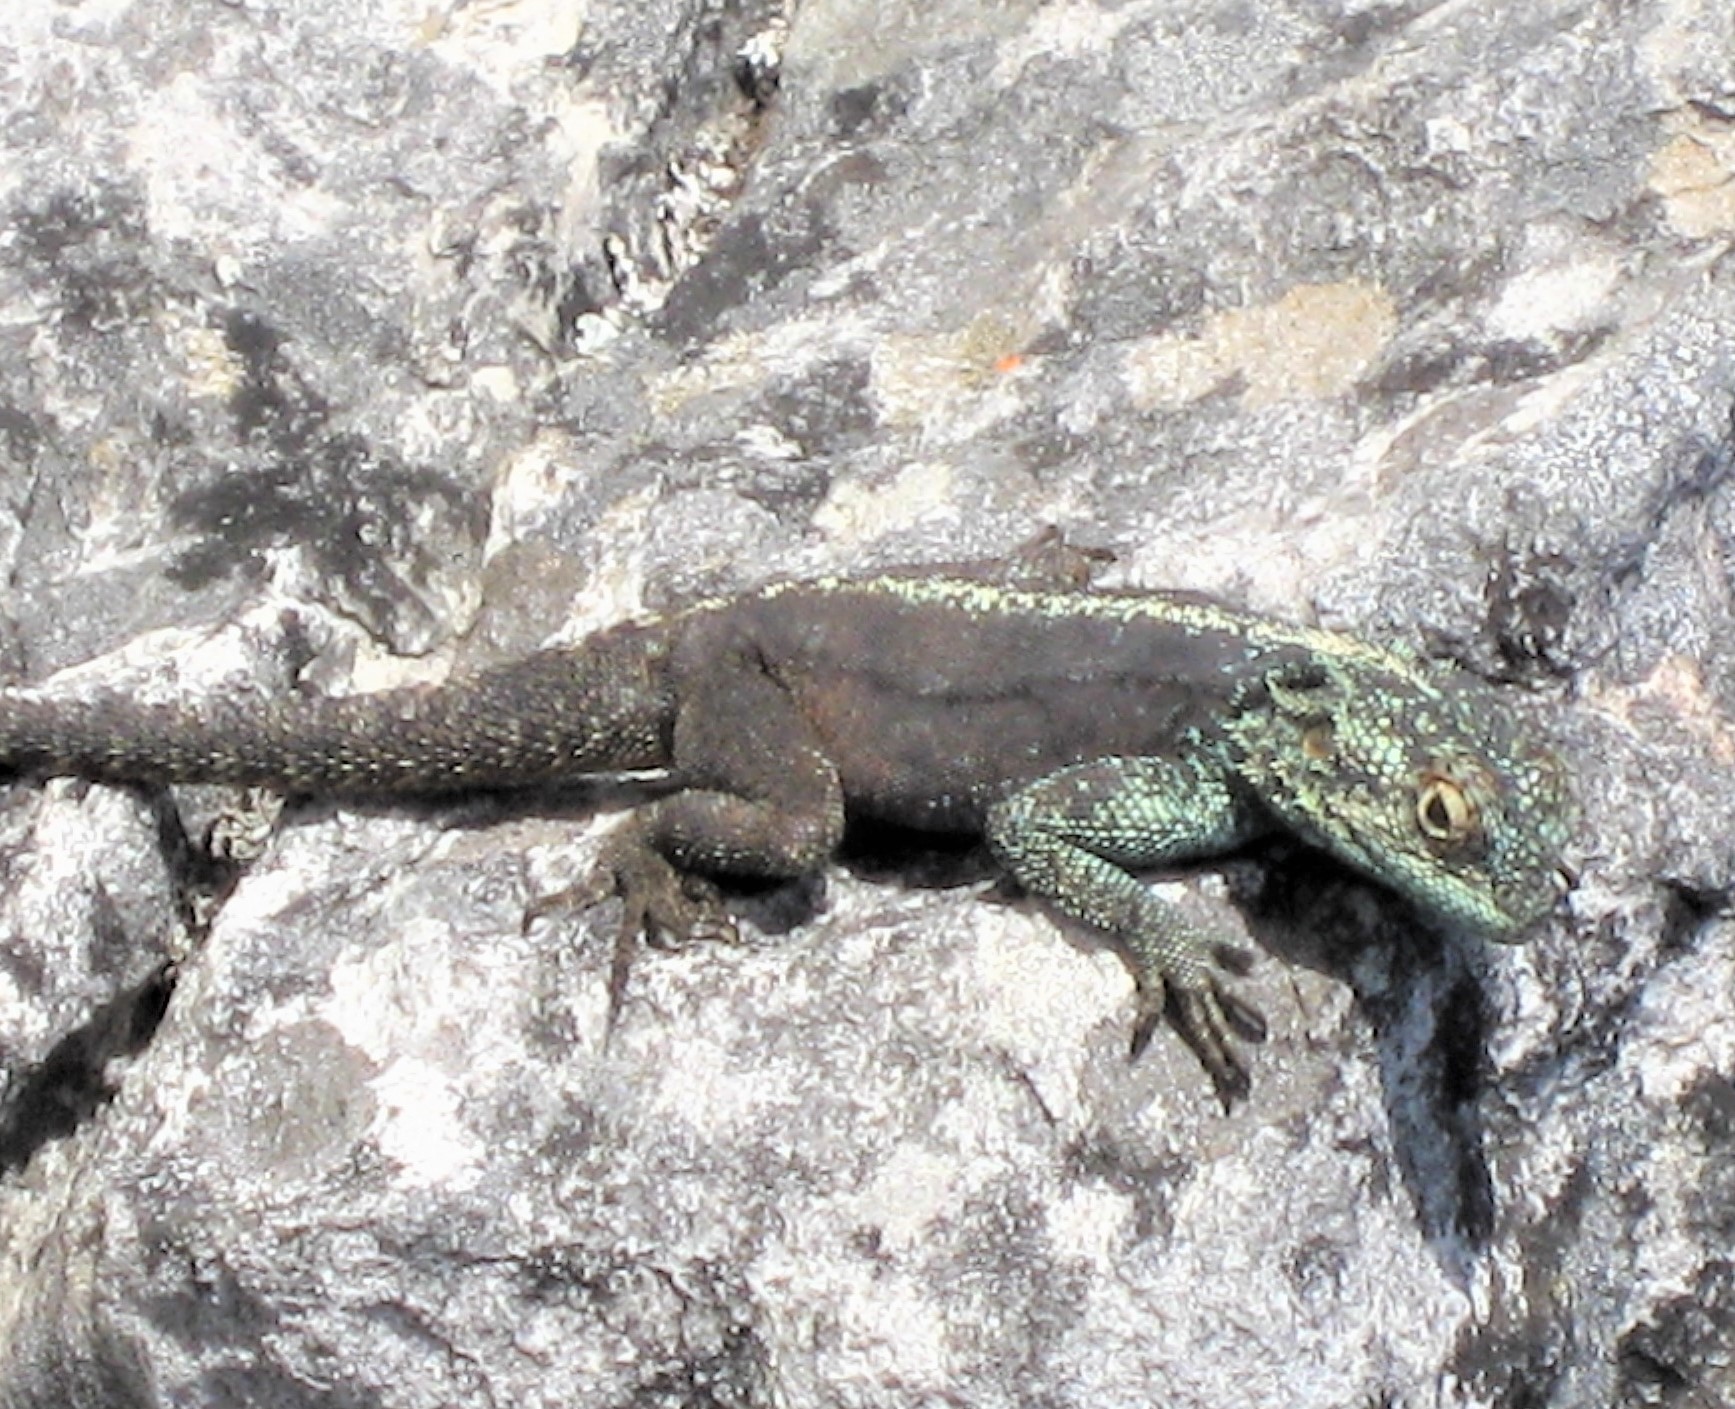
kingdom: Animalia
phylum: Chordata
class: Squamata
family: Agamidae
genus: Agama
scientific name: Agama atra
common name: Southern african rock agama
